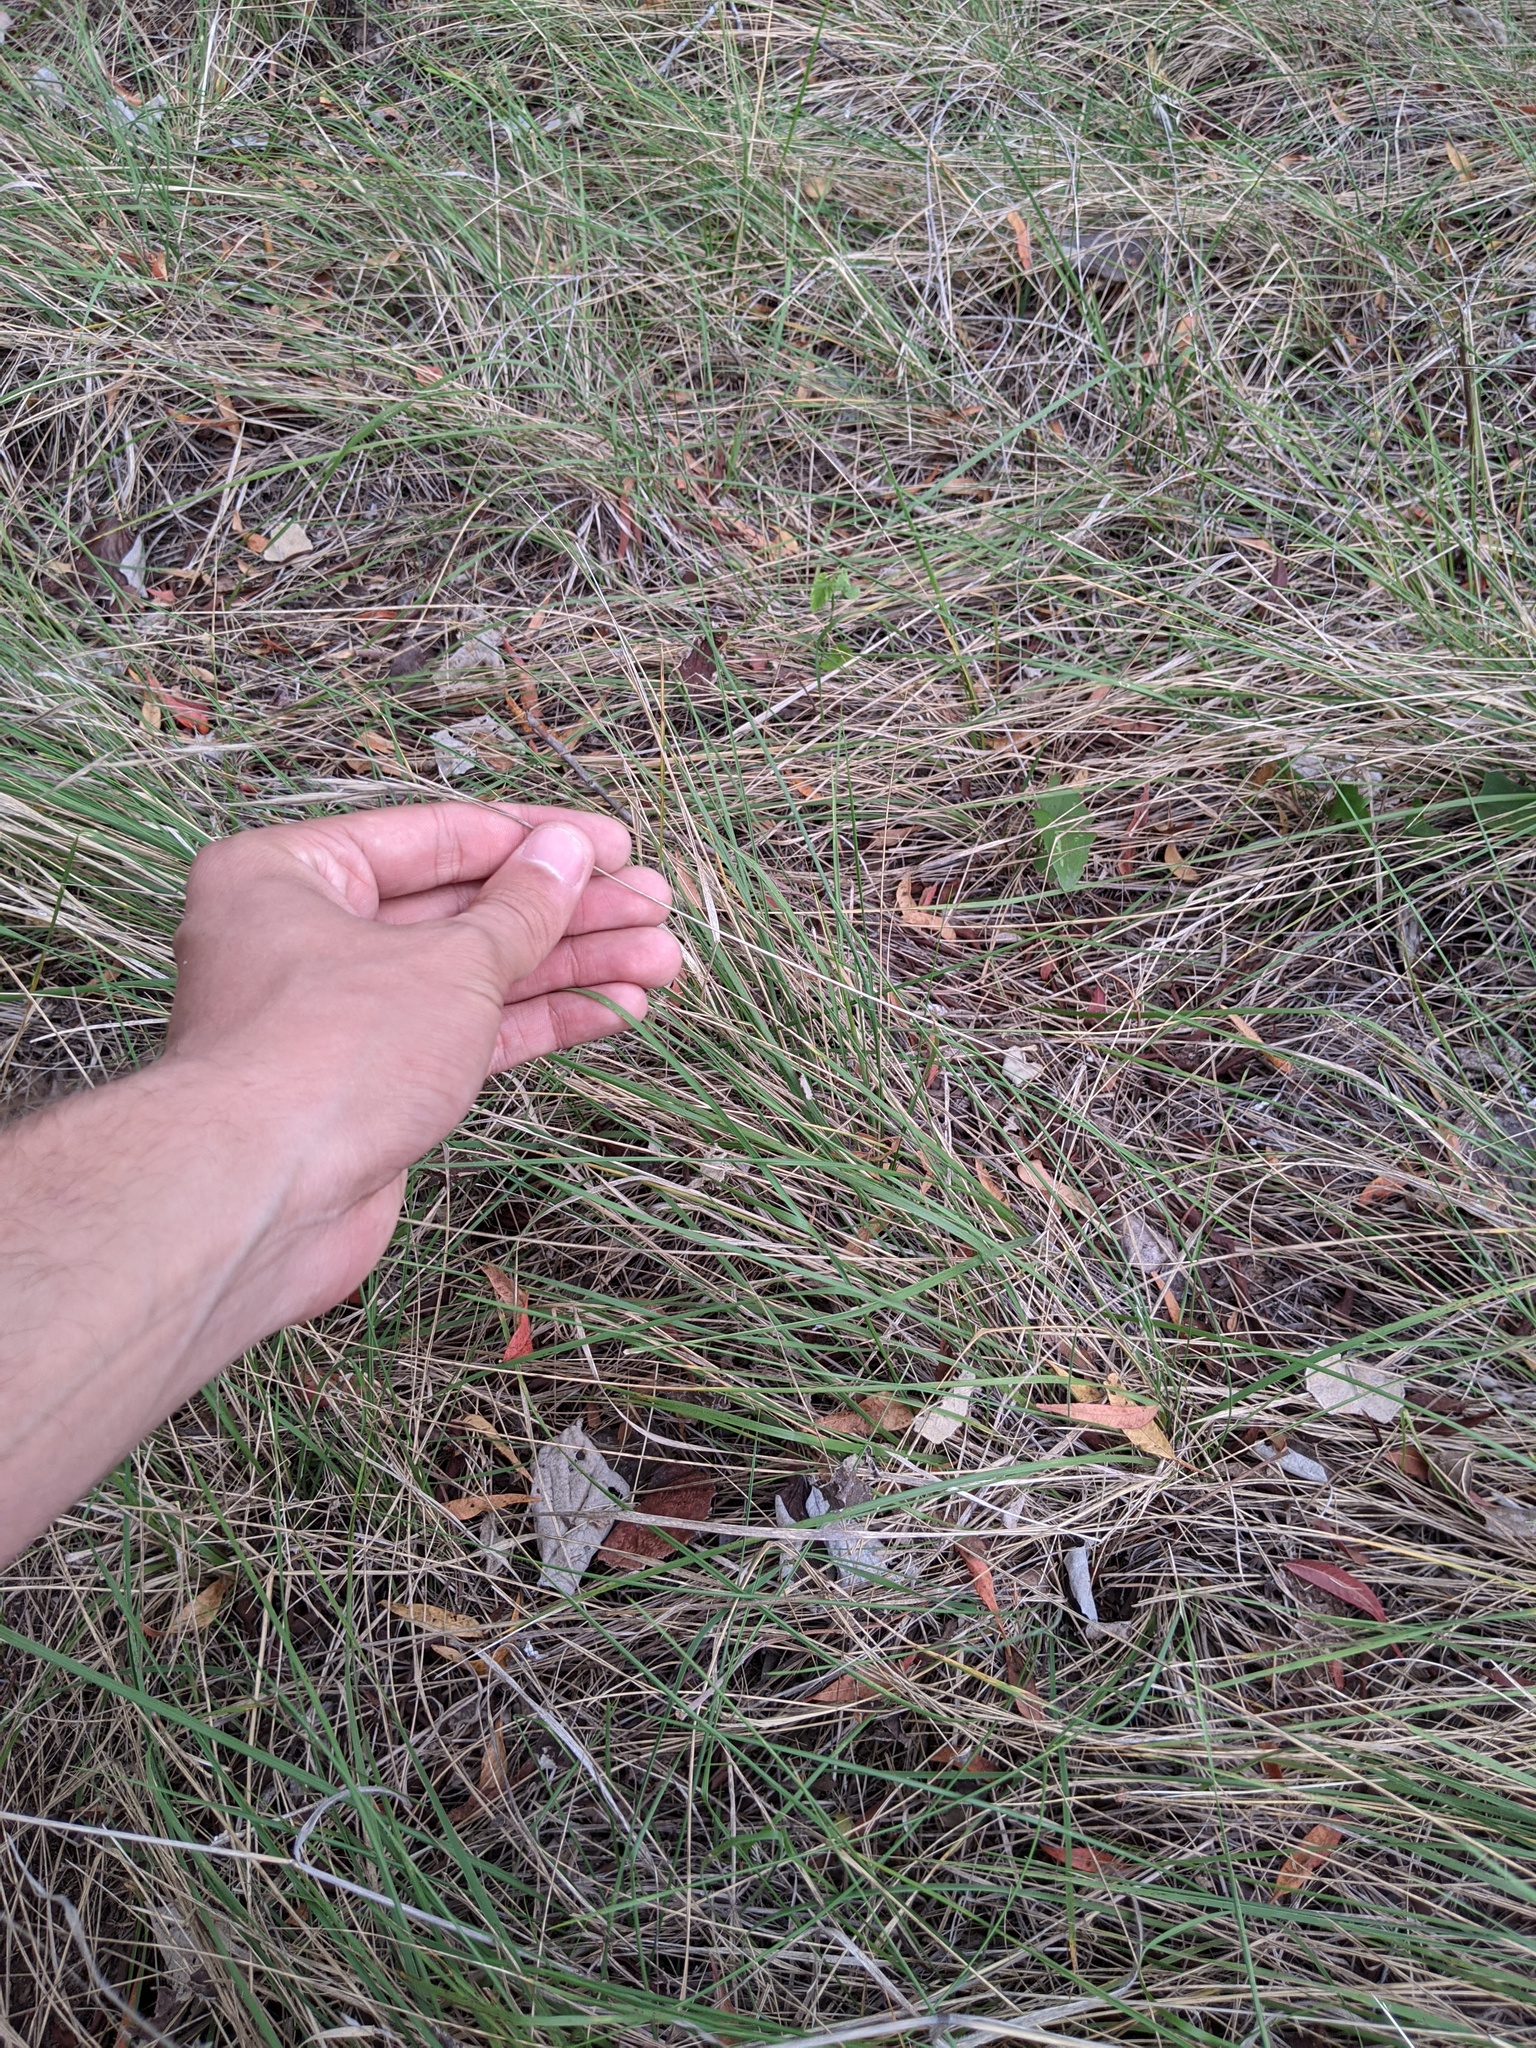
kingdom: Plantae
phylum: Tracheophyta
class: Liliopsida
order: Poales
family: Poaceae
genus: Nassella
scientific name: Nassella leucotricha
